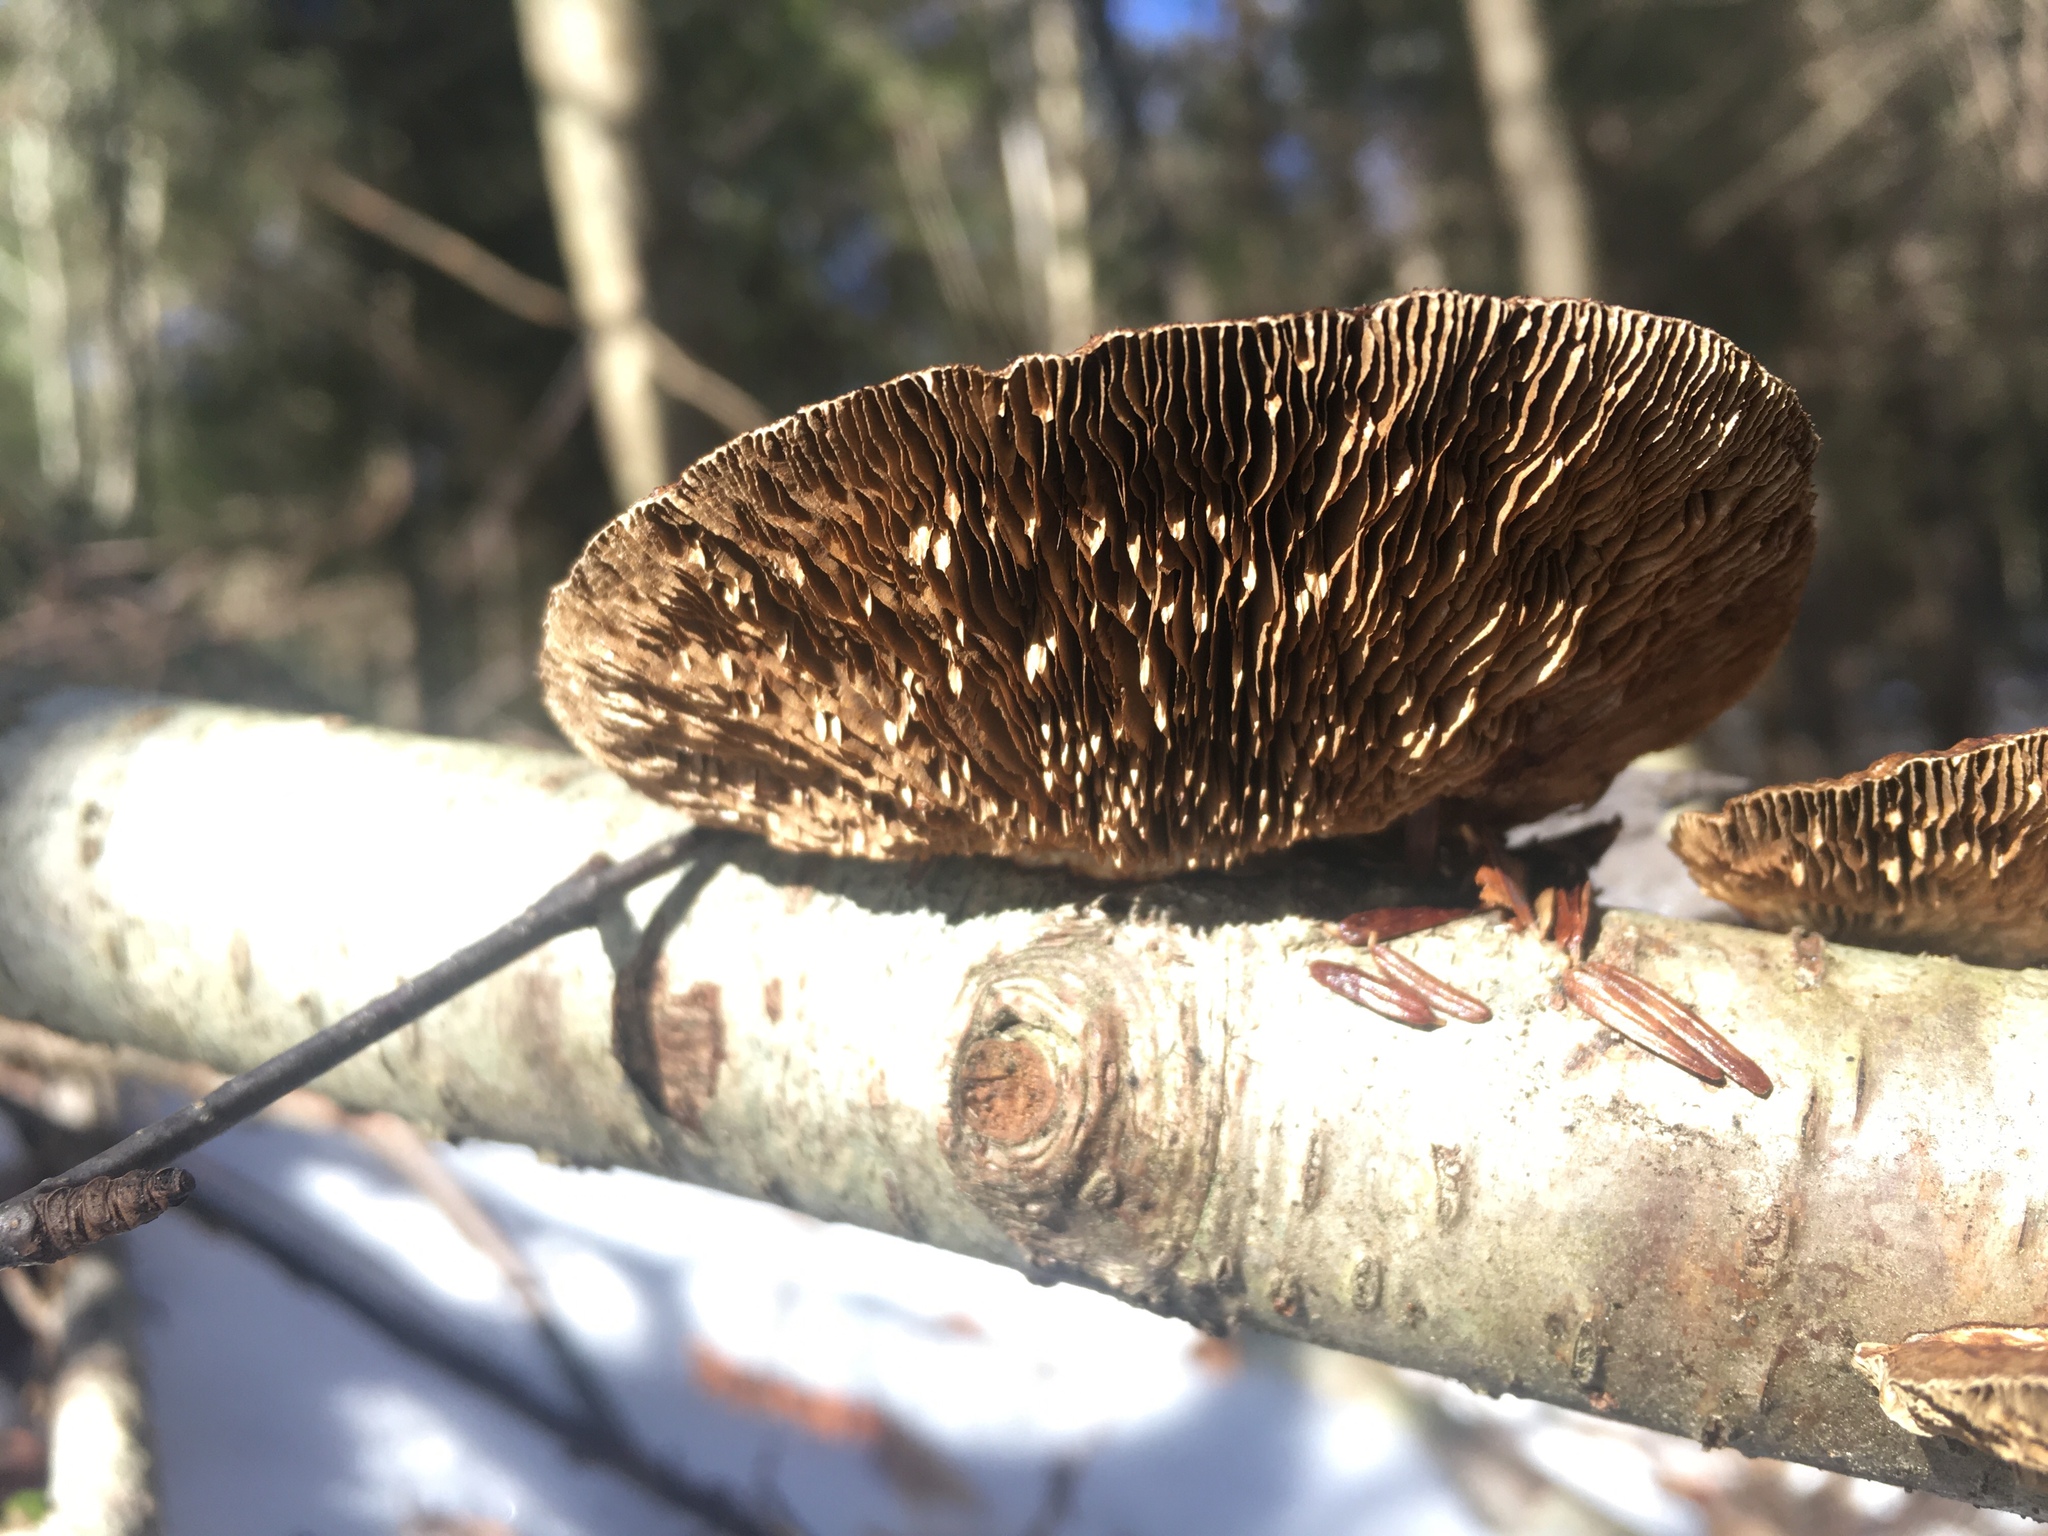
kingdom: Fungi
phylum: Basidiomycota
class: Agaricomycetes
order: Polyporales
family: Polyporaceae
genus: Daedaleopsis
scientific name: Daedaleopsis confragosa
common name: Blushing bracket
